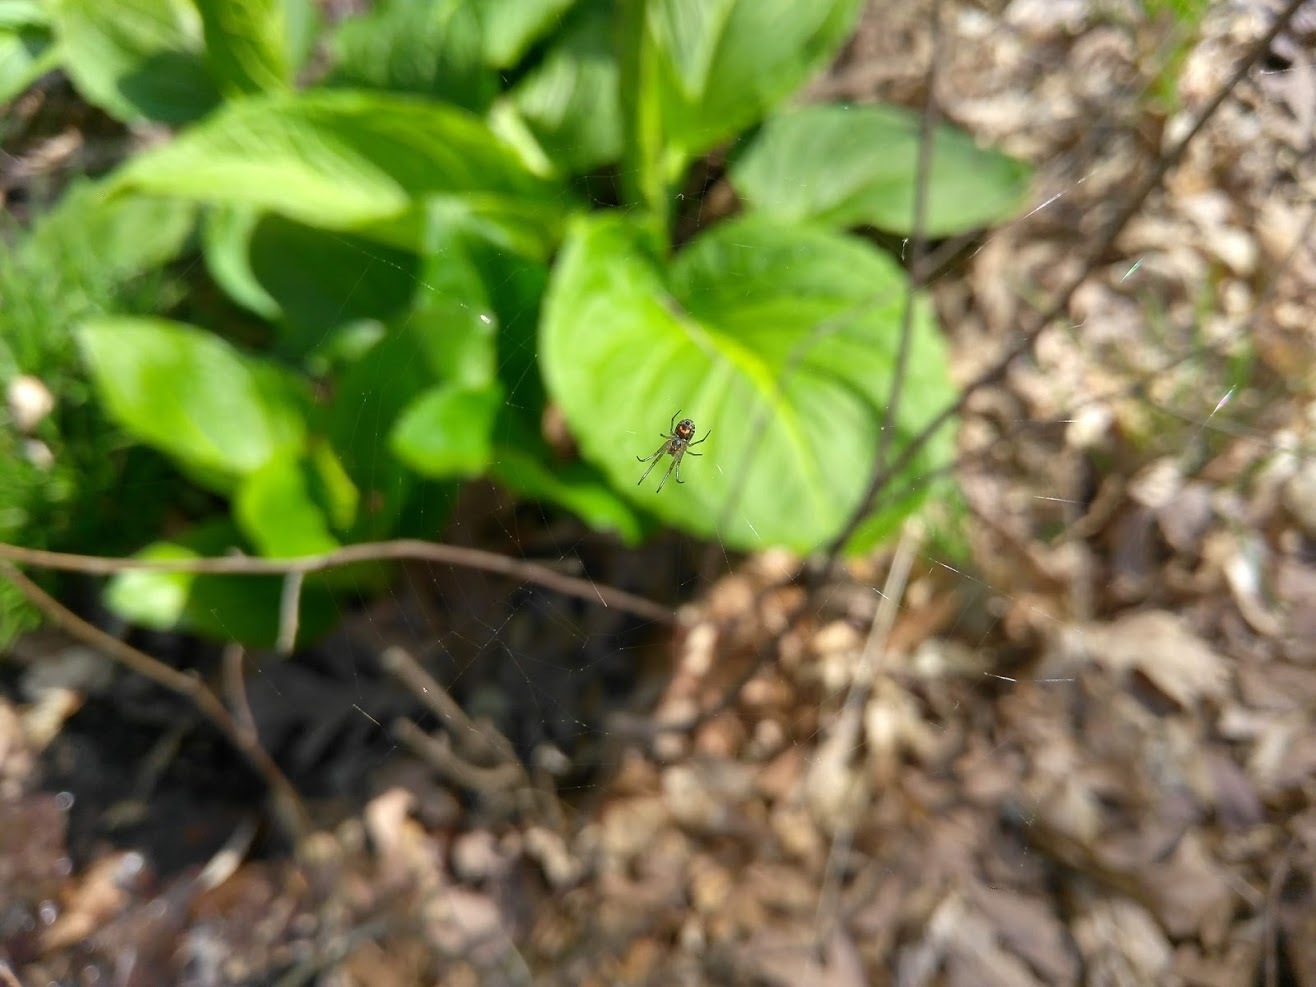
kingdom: Animalia
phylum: Arthropoda
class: Arachnida
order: Araneae
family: Tetragnathidae
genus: Leucauge
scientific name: Leucauge venusta
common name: Longjawed orb weavers
